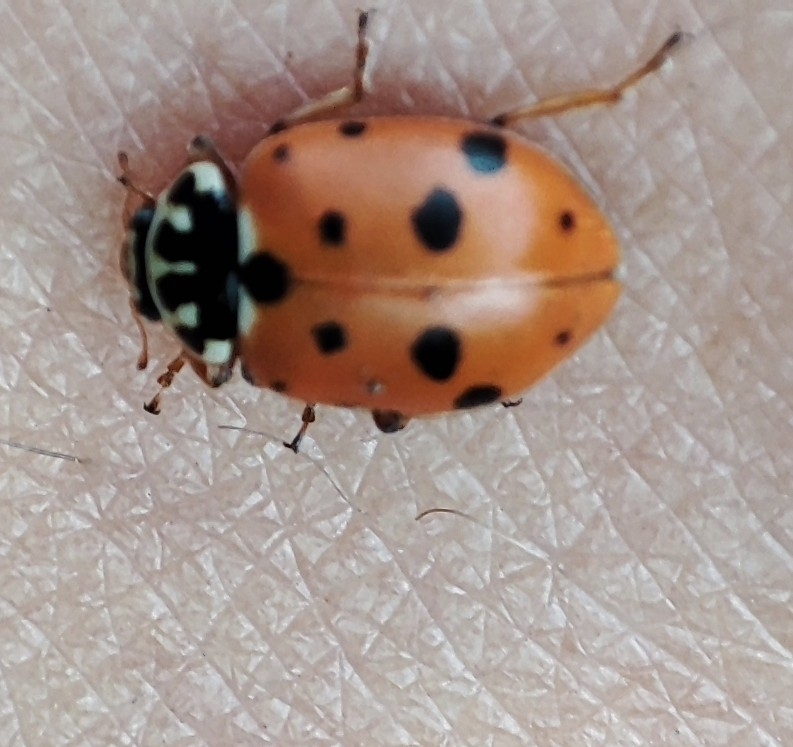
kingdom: Animalia
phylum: Arthropoda
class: Insecta
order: Coleoptera
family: Coccinellidae
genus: Hippodamia
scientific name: Hippodamia variegata
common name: Ladybird beetle
